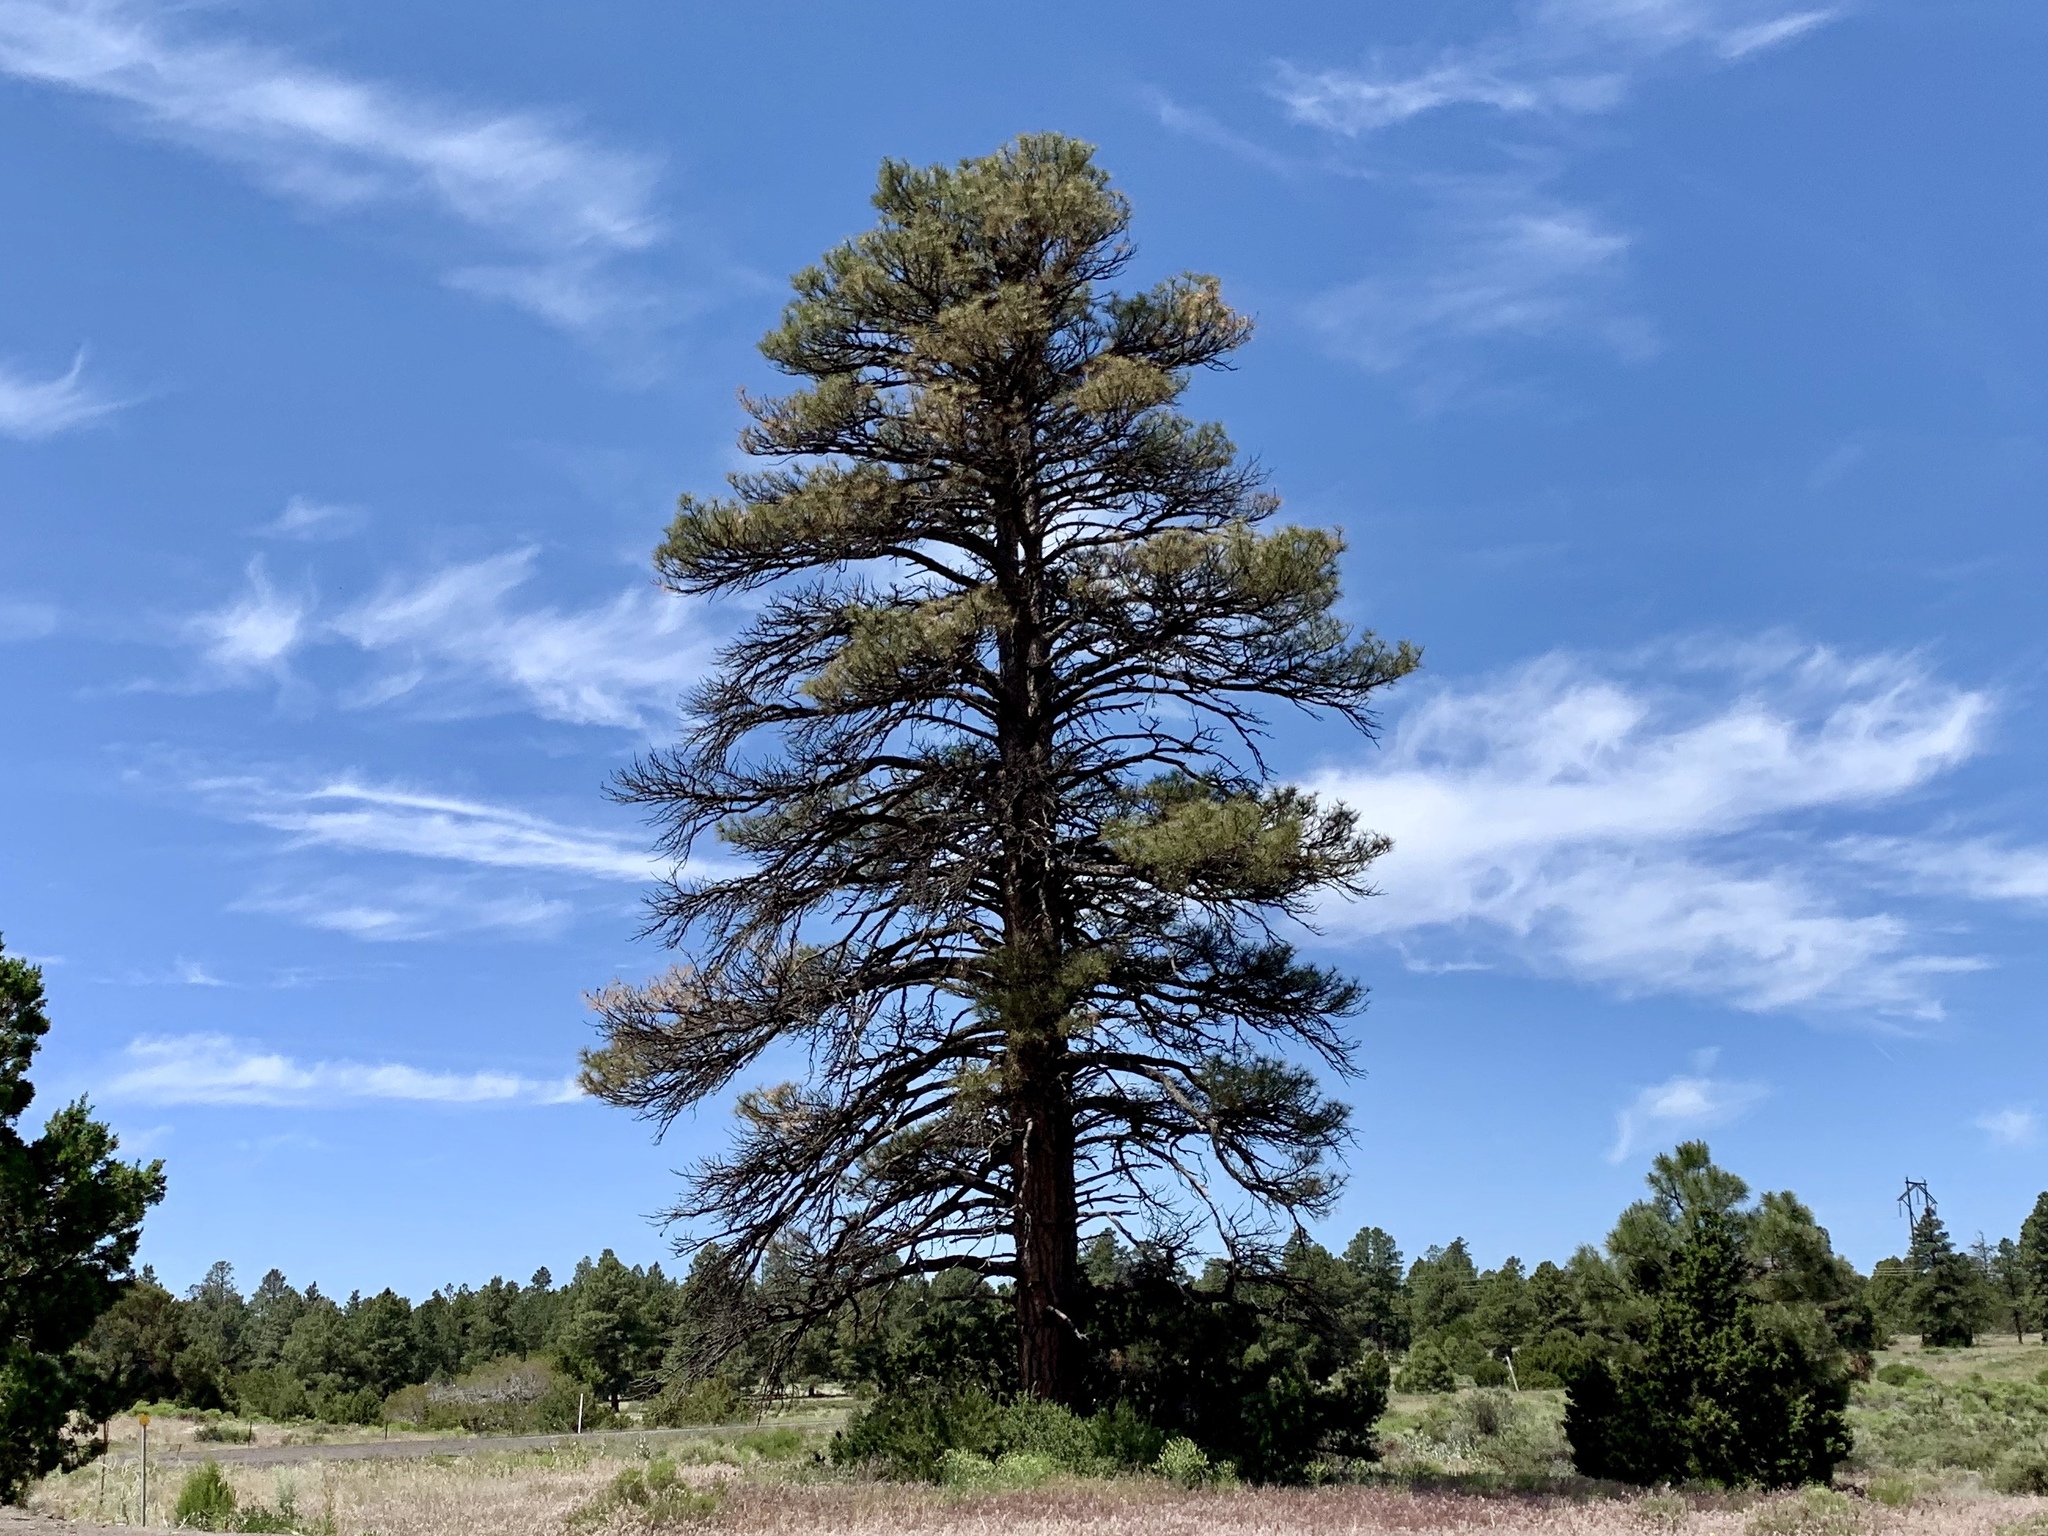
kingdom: Plantae
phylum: Tracheophyta
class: Pinopsida
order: Pinales
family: Pinaceae
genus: Pinus
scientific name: Pinus ponderosa
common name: Western yellow-pine
